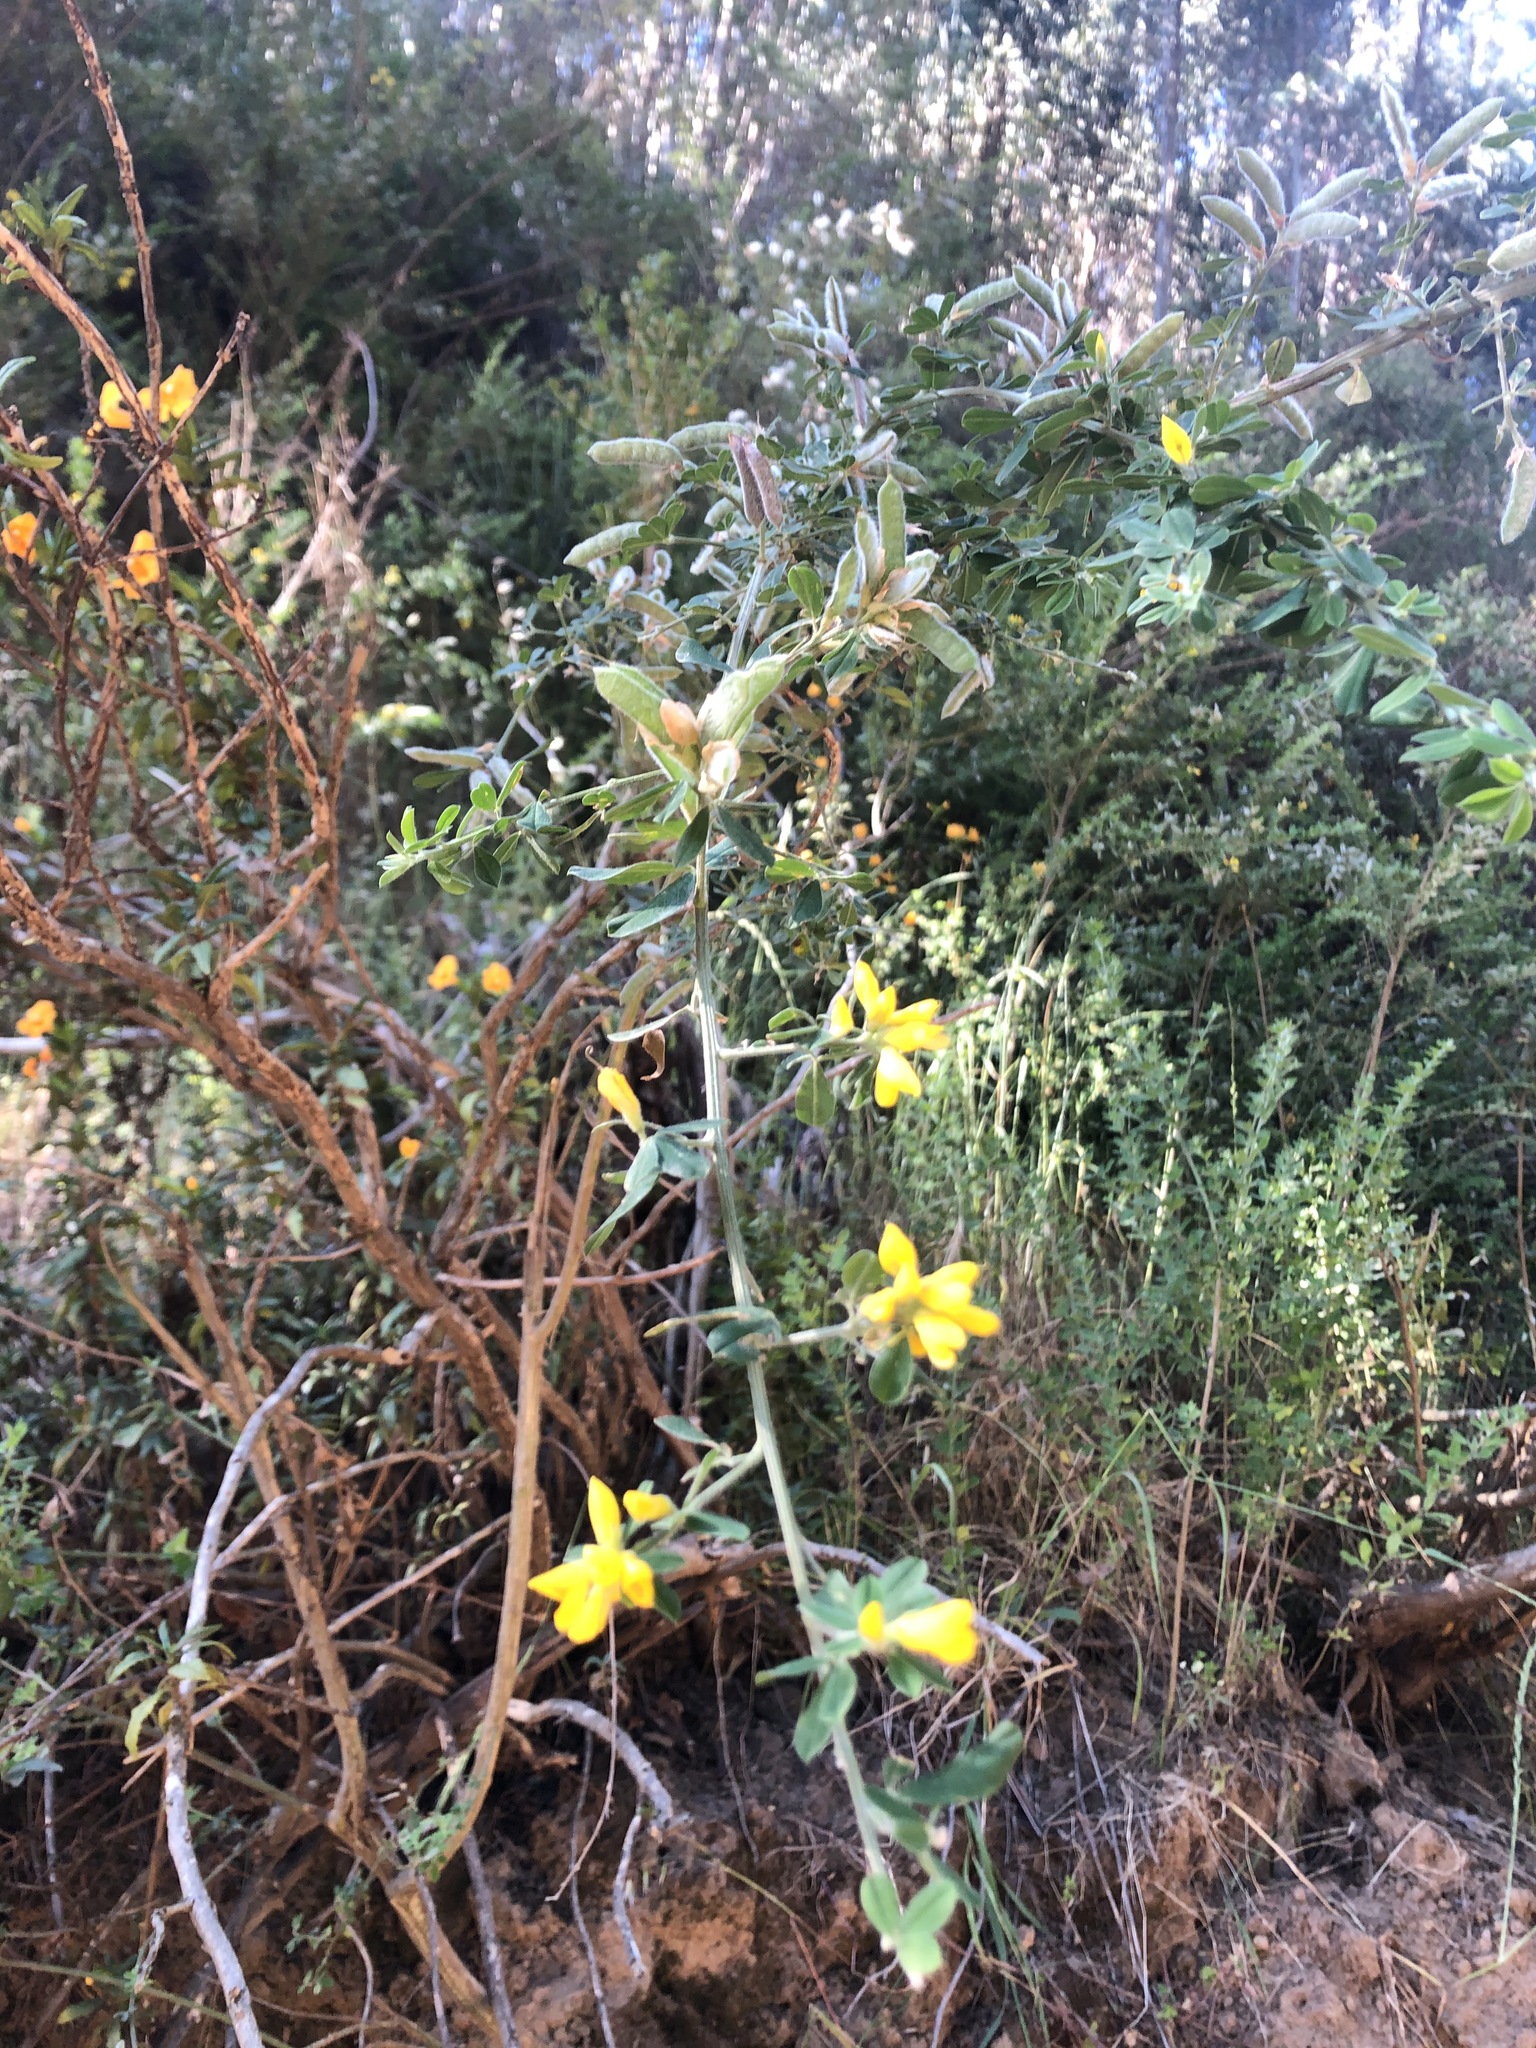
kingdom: Plantae
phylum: Tracheophyta
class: Magnoliopsida
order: Fabales
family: Fabaceae
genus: Genista
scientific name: Genista monspessulana
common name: Montpellier broom
